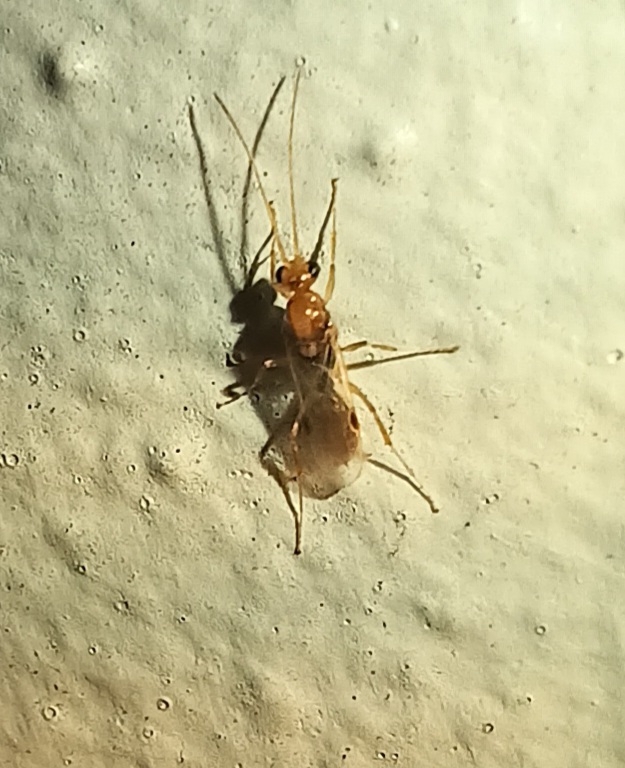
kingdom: Animalia
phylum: Arthropoda
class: Insecta
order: Hymenoptera
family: Formicidae
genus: Odontomachus
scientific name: Odontomachus ruginodis
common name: Trapjaw ant
